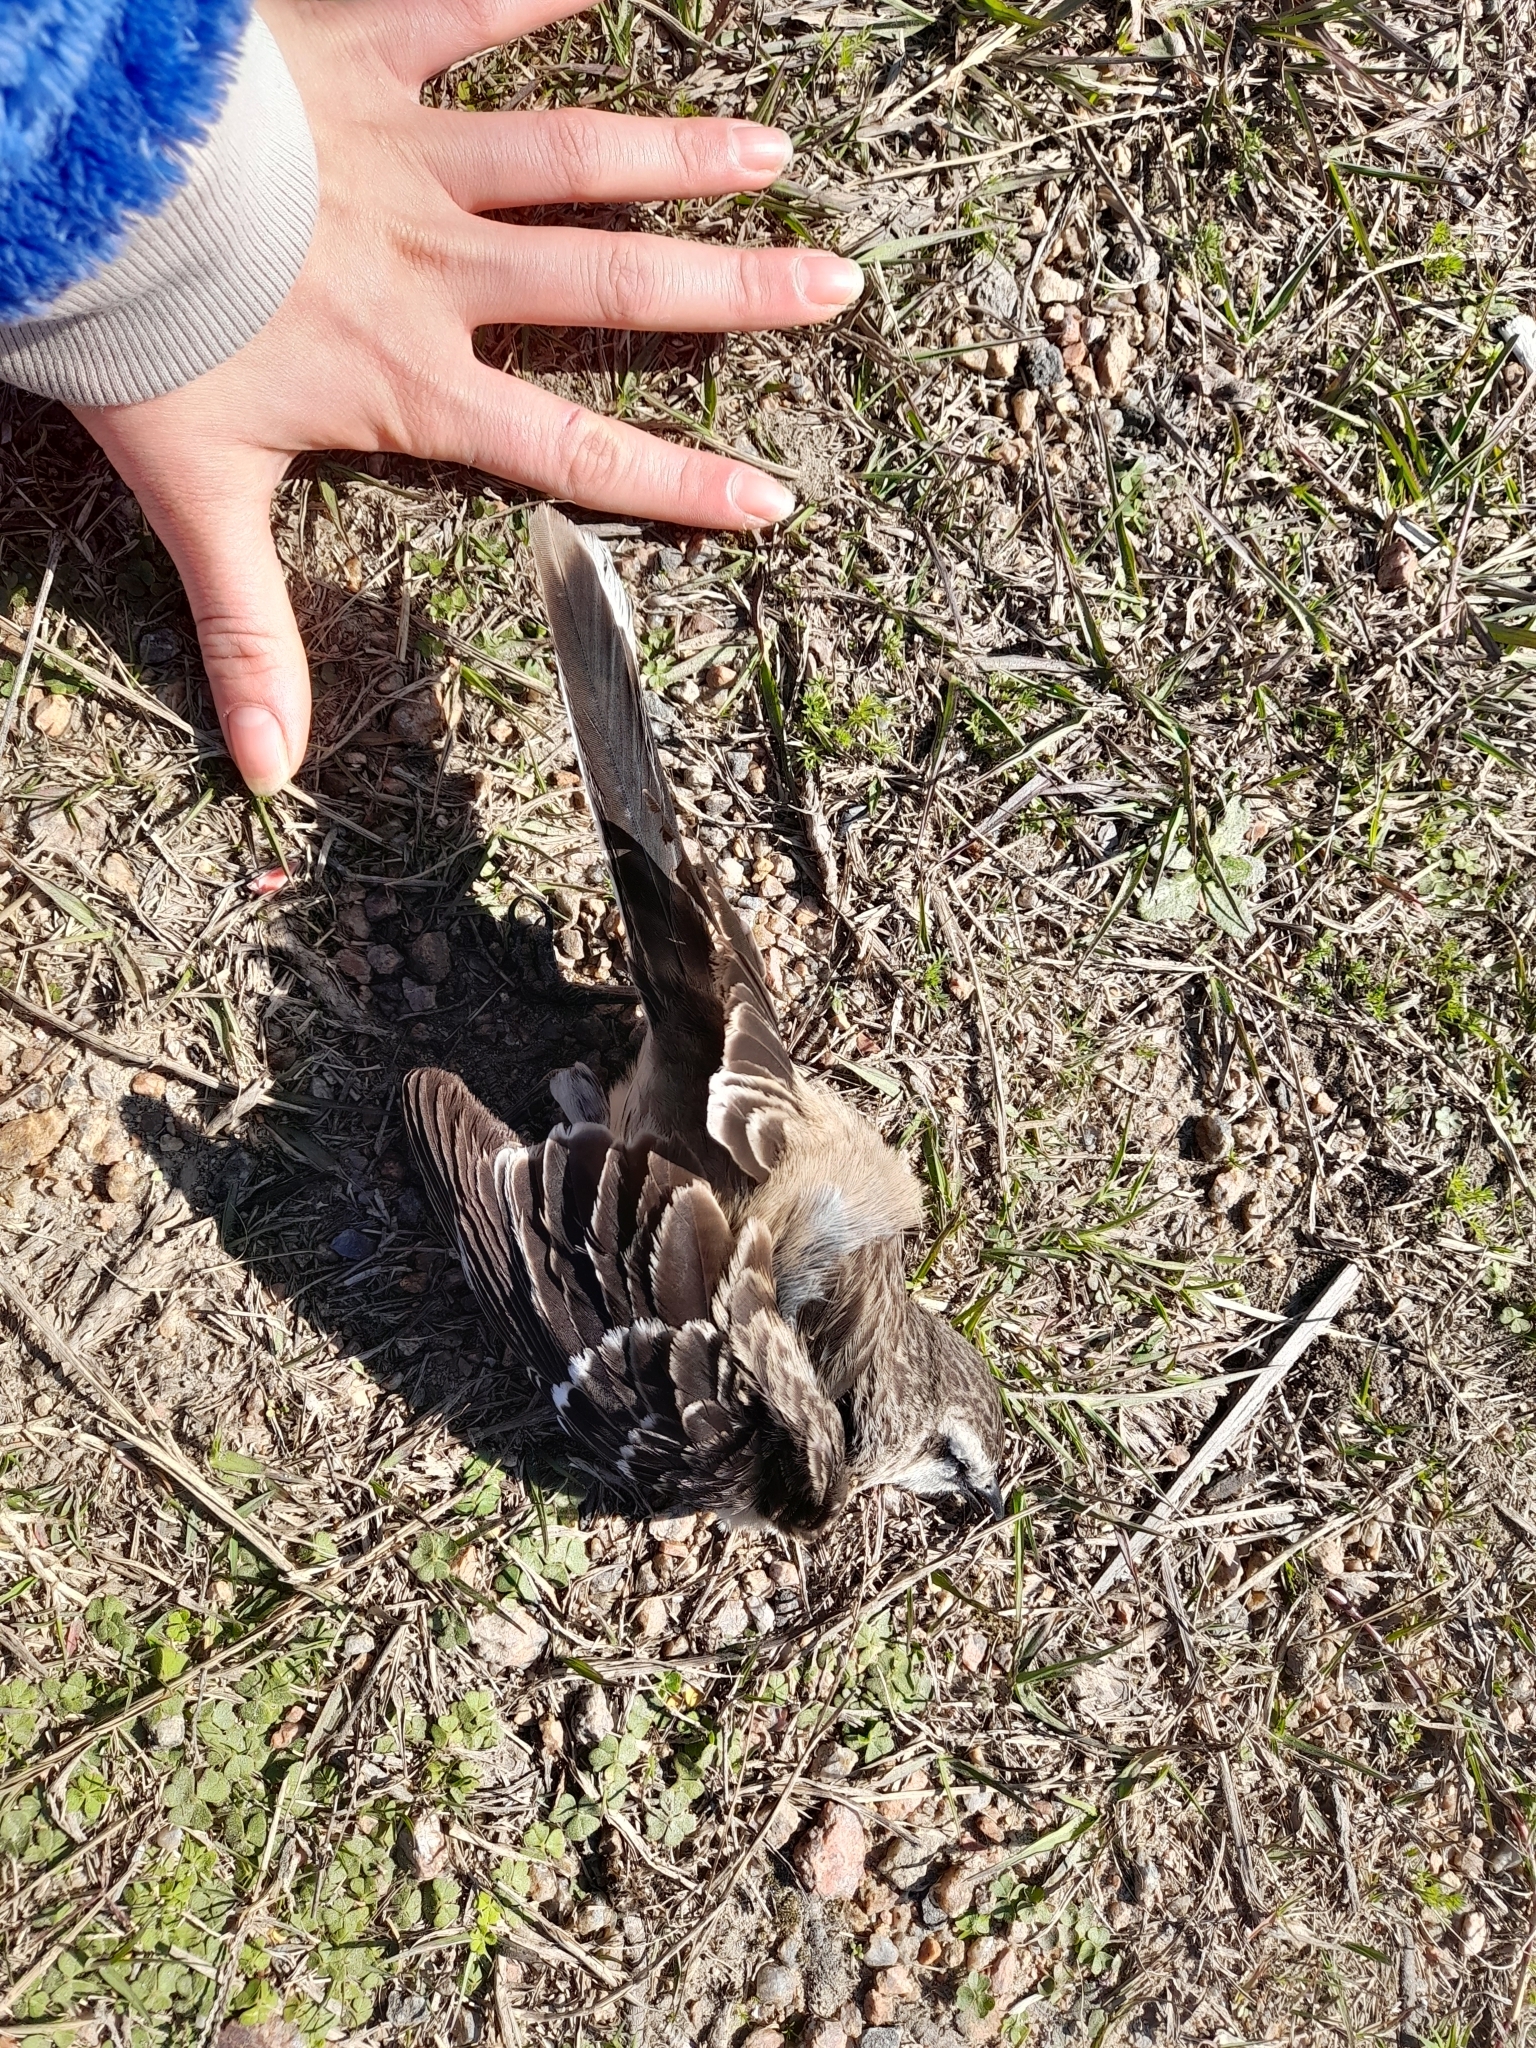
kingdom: Animalia
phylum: Chordata
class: Aves
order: Passeriformes
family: Mimidae
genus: Mimus
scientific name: Mimus saturninus
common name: Chalk-browed mockingbird
